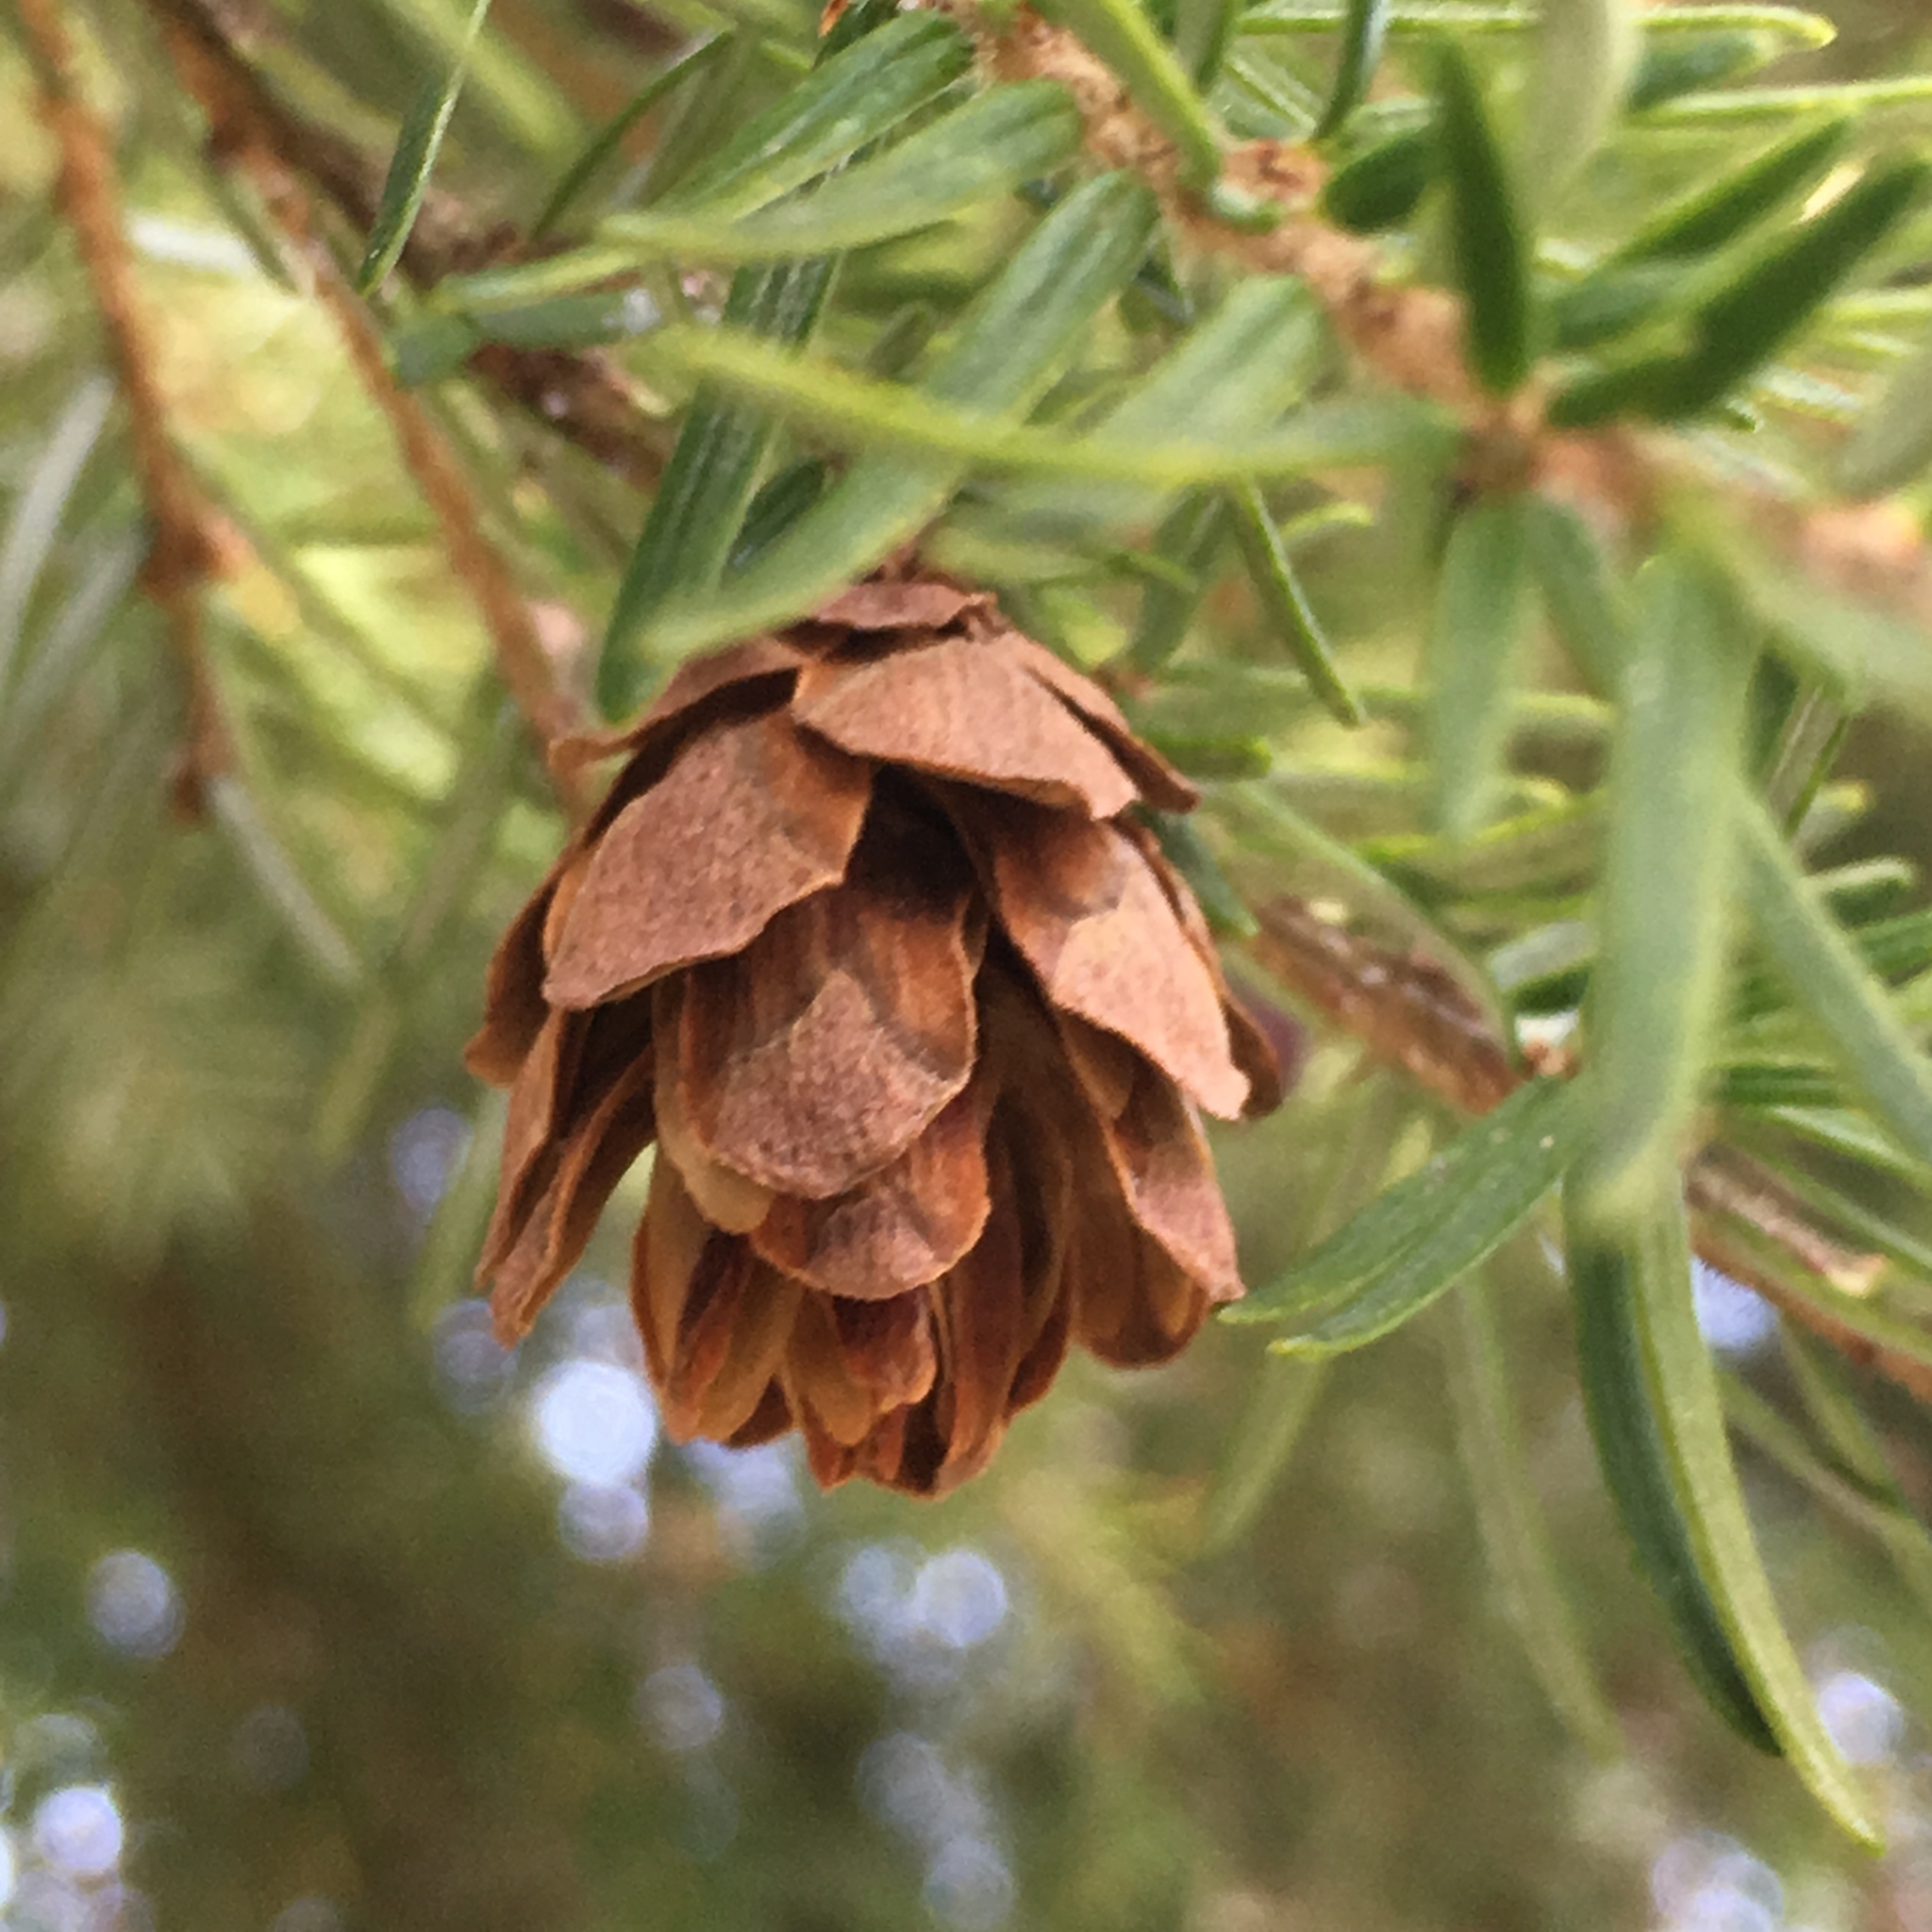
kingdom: Plantae
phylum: Tracheophyta
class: Pinopsida
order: Pinales
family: Pinaceae
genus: Tsuga
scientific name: Tsuga heterophylla
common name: Western hemlock
